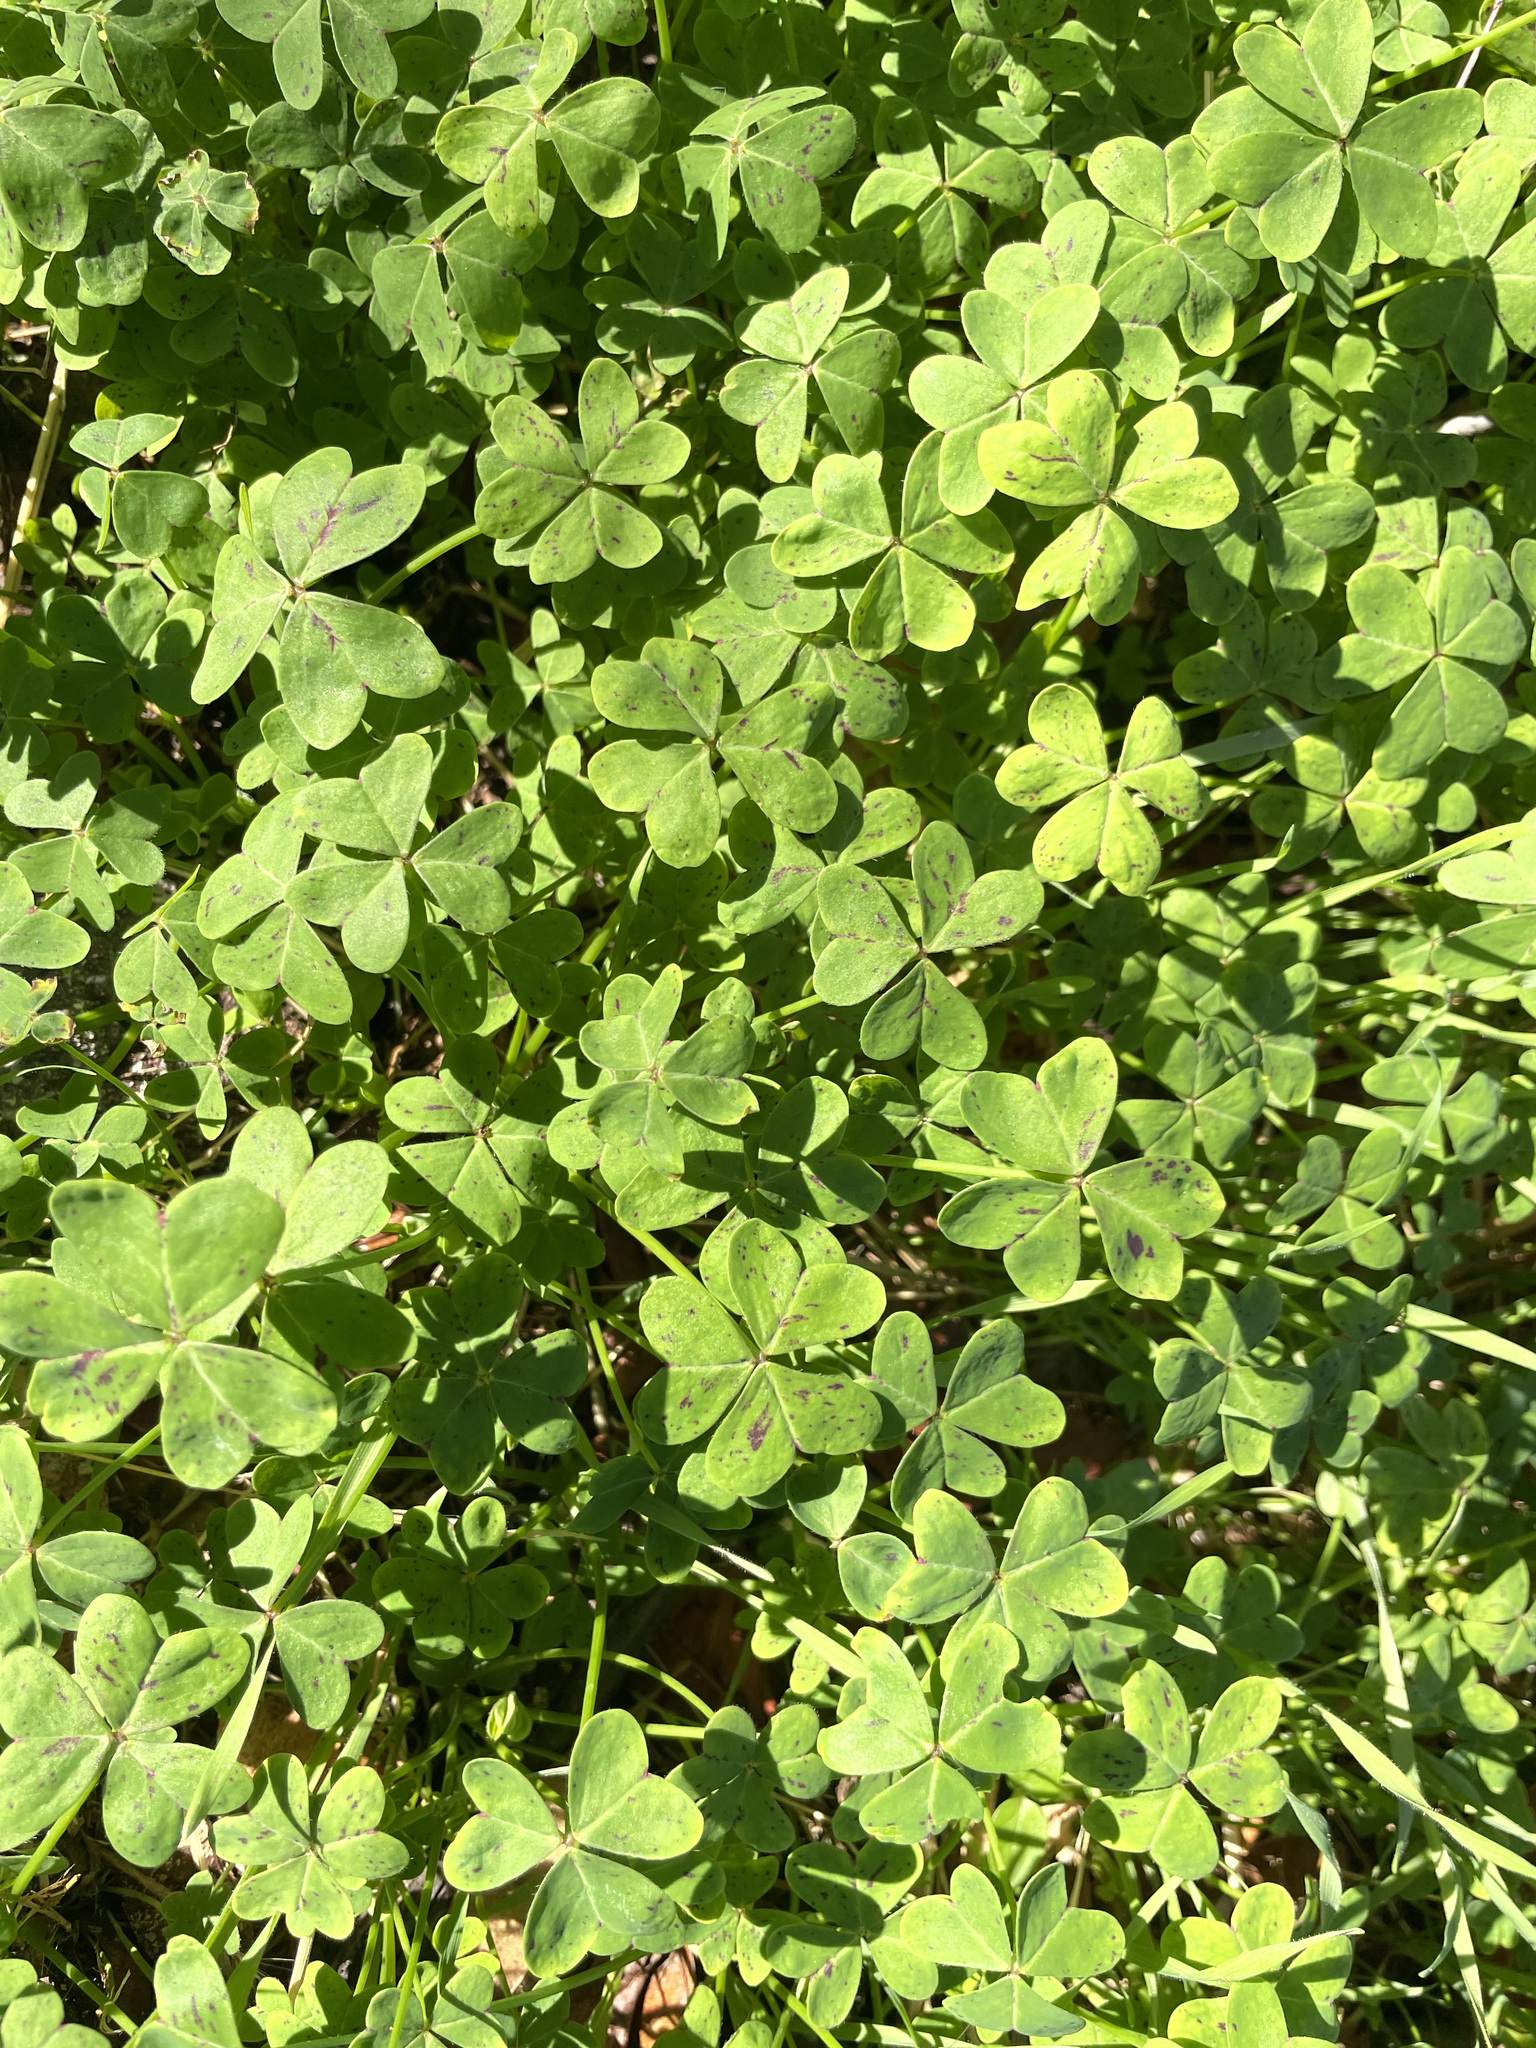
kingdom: Plantae
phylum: Tracheophyta
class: Magnoliopsida
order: Oxalidales
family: Oxalidaceae
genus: Oxalis
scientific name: Oxalis pes-caprae
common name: Bermuda-buttercup
